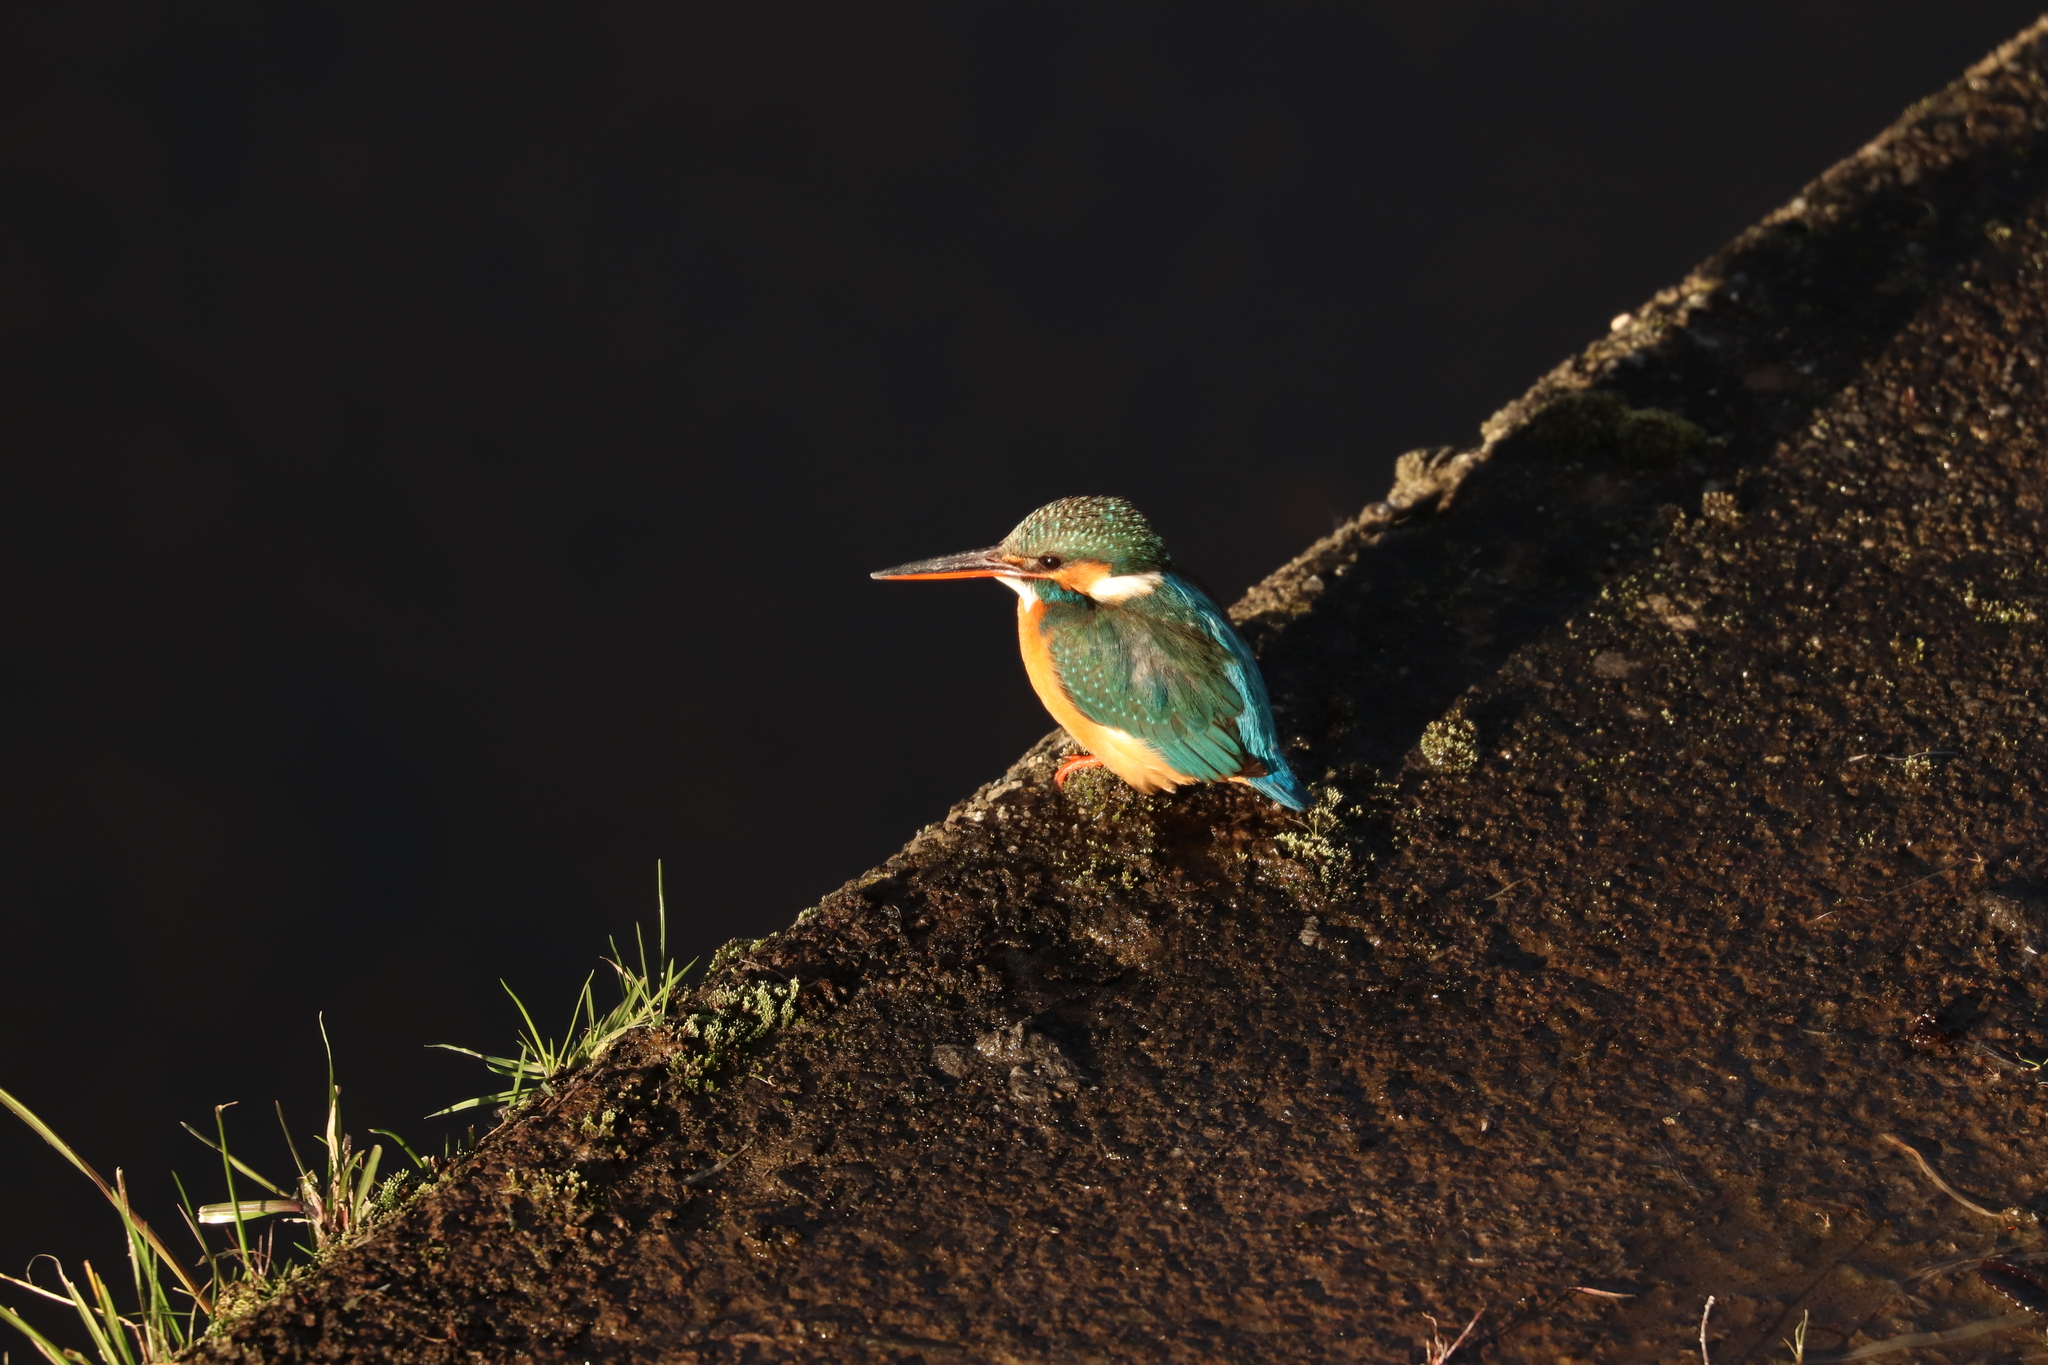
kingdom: Animalia
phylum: Chordata
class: Aves
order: Coraciiformes
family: Alcedinidae
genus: Alcedo
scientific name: Alcedo atthis
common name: Common kingfisher
